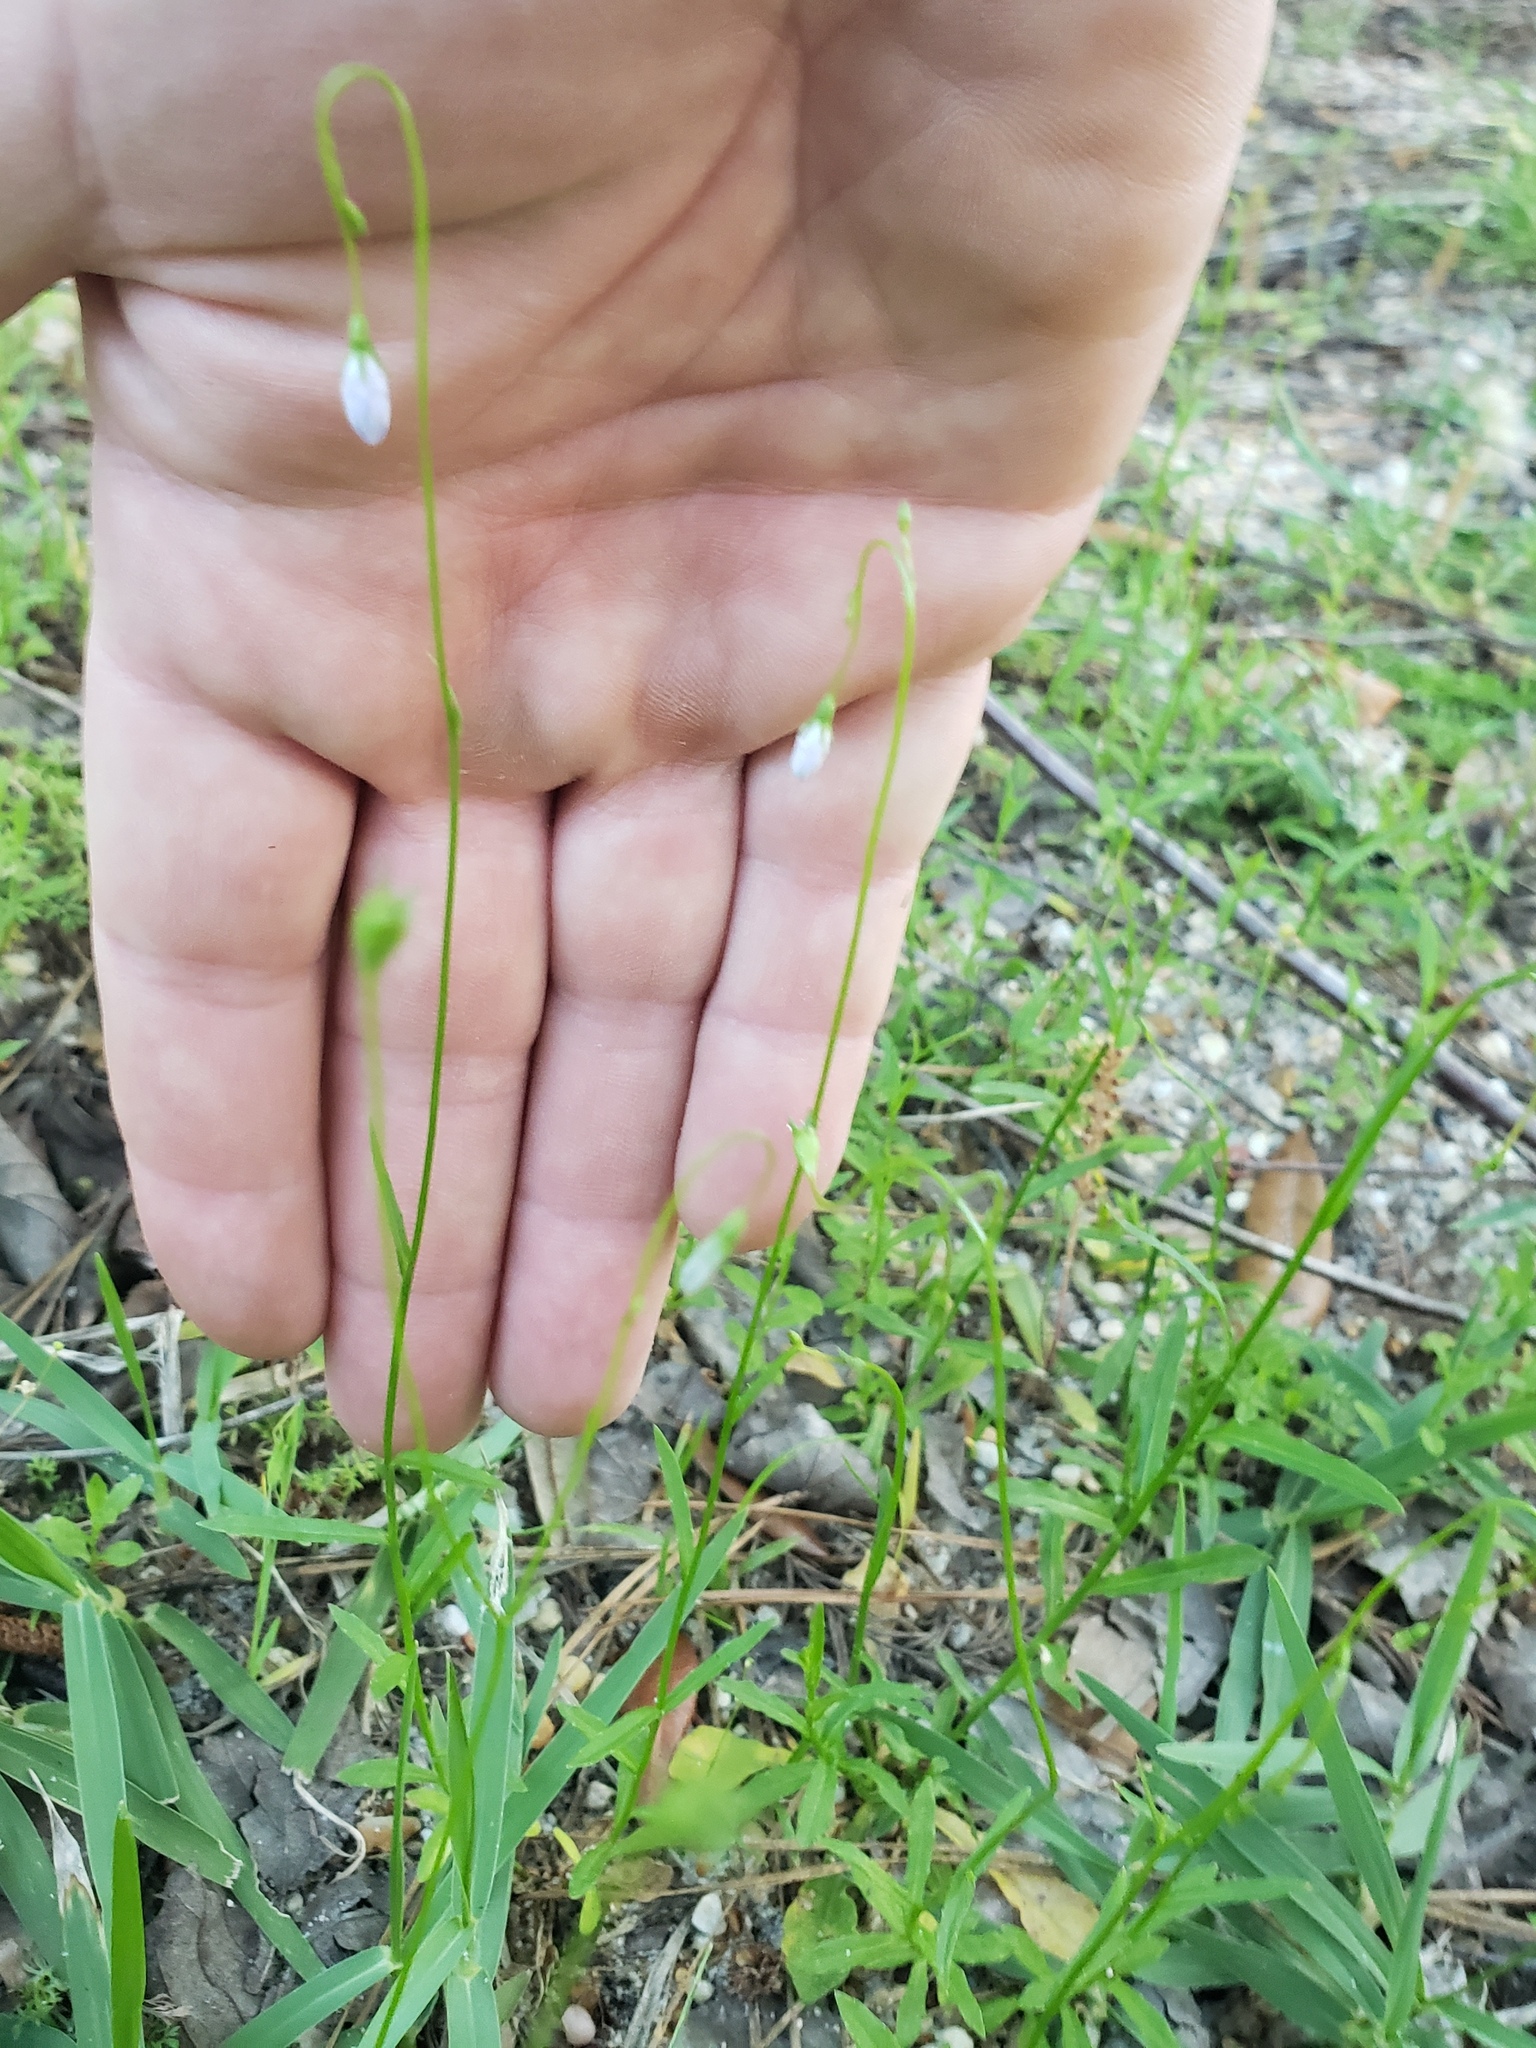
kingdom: Plantae
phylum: Tracheophyta
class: Magnoliopsida
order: Asterales
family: Campanulaceae
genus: Wahlenbergia
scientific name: Wahlenbergia marginata
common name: Southern rockbell
